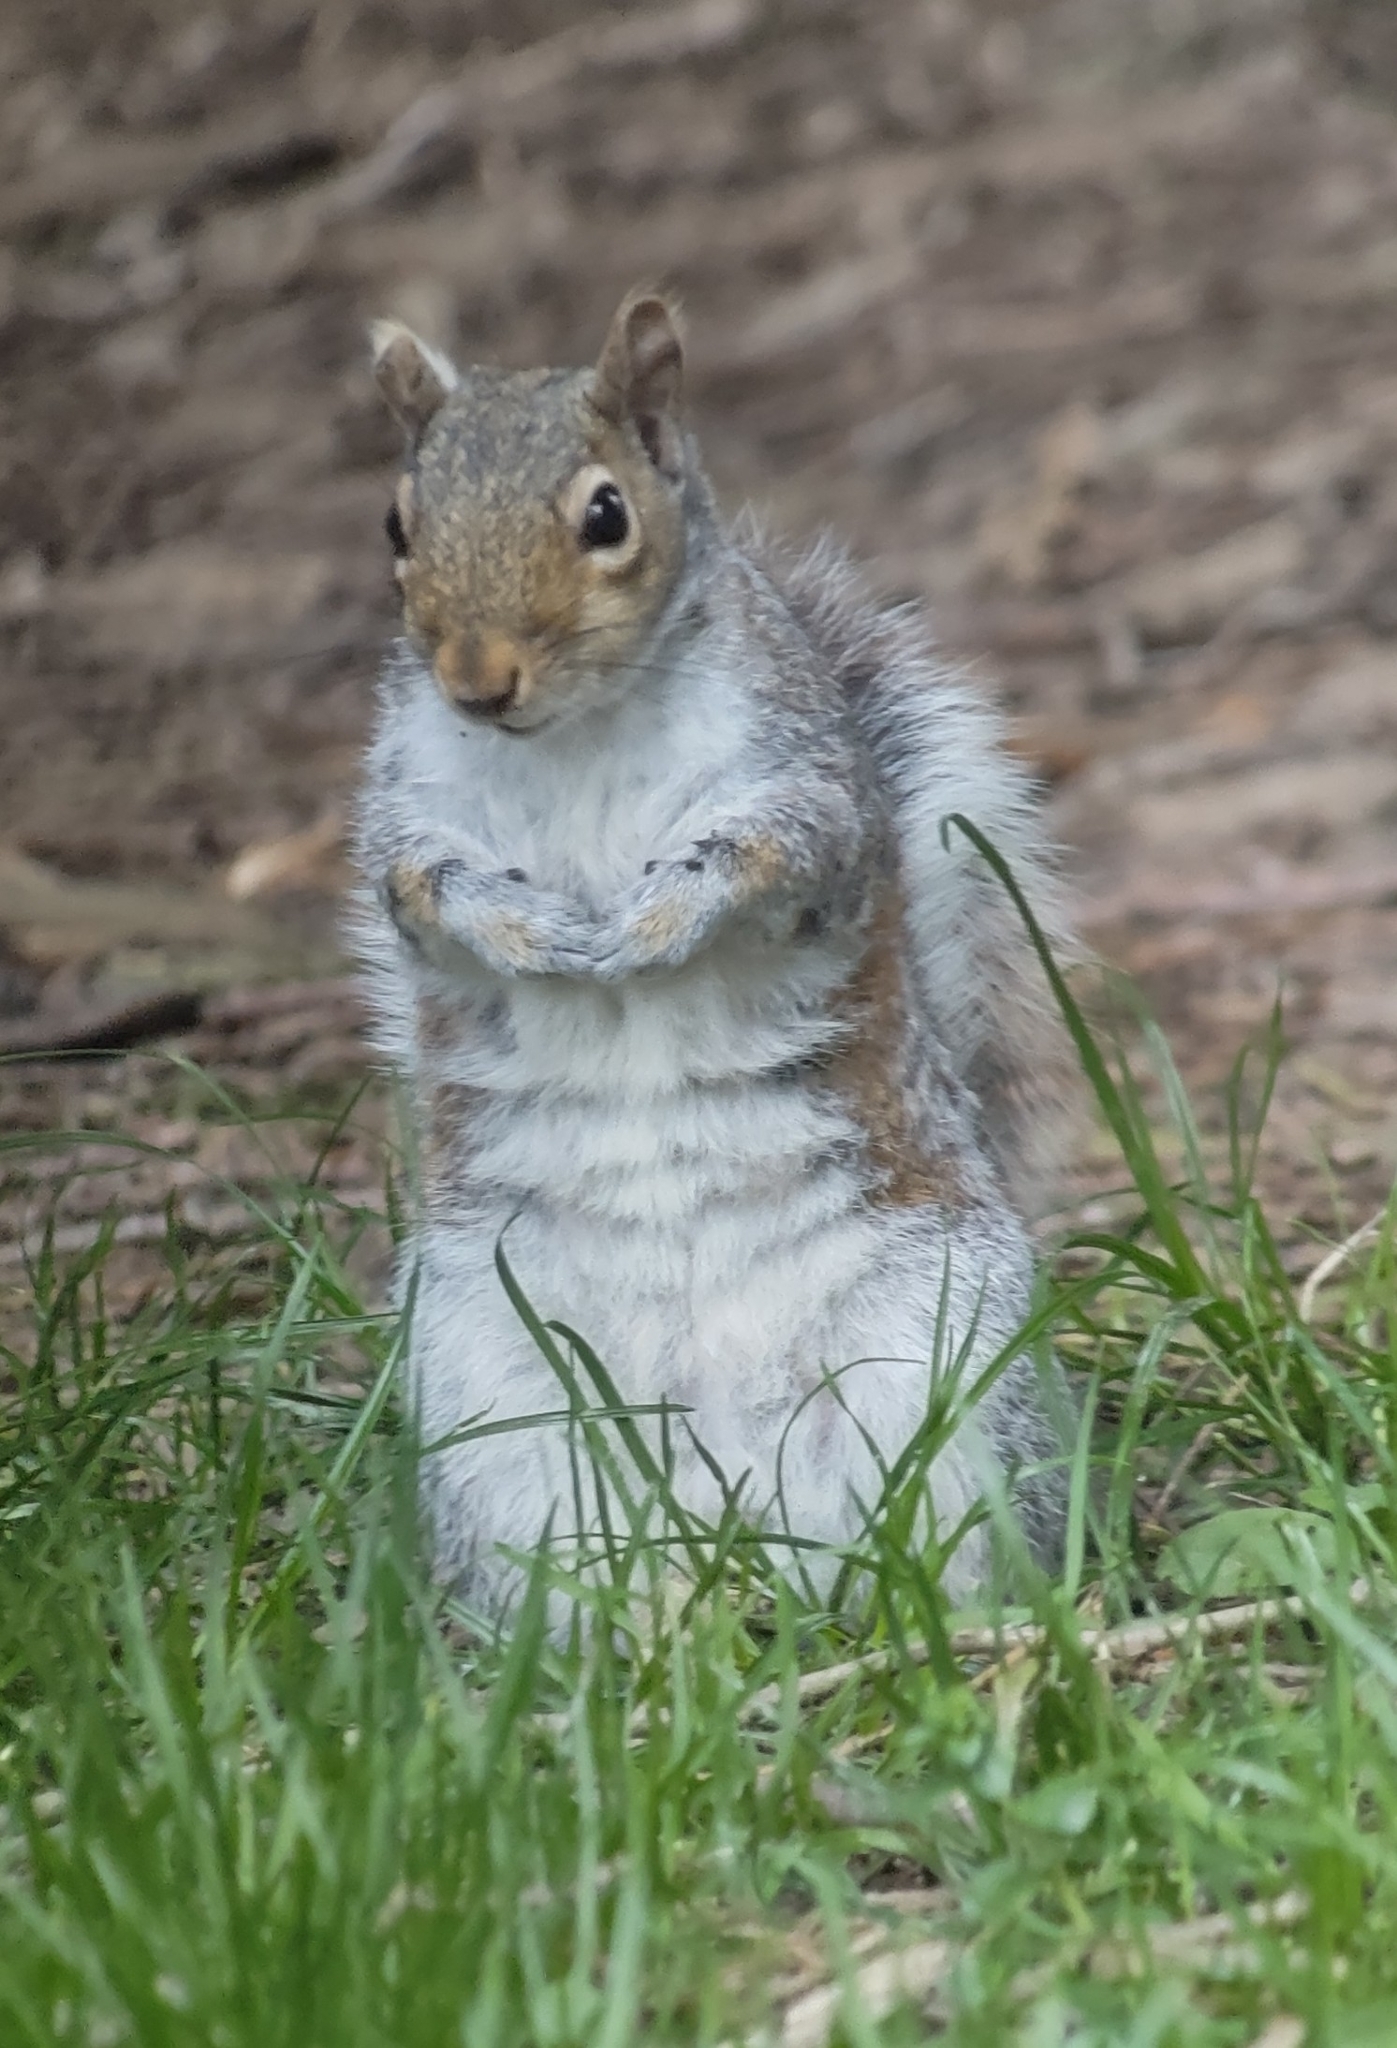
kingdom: Animalia
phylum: Chordata
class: Mammalia
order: Rodentia
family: Sciuridae
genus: Sciurus
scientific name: Sciurus carolinensis
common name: Eastern gray squirrel
